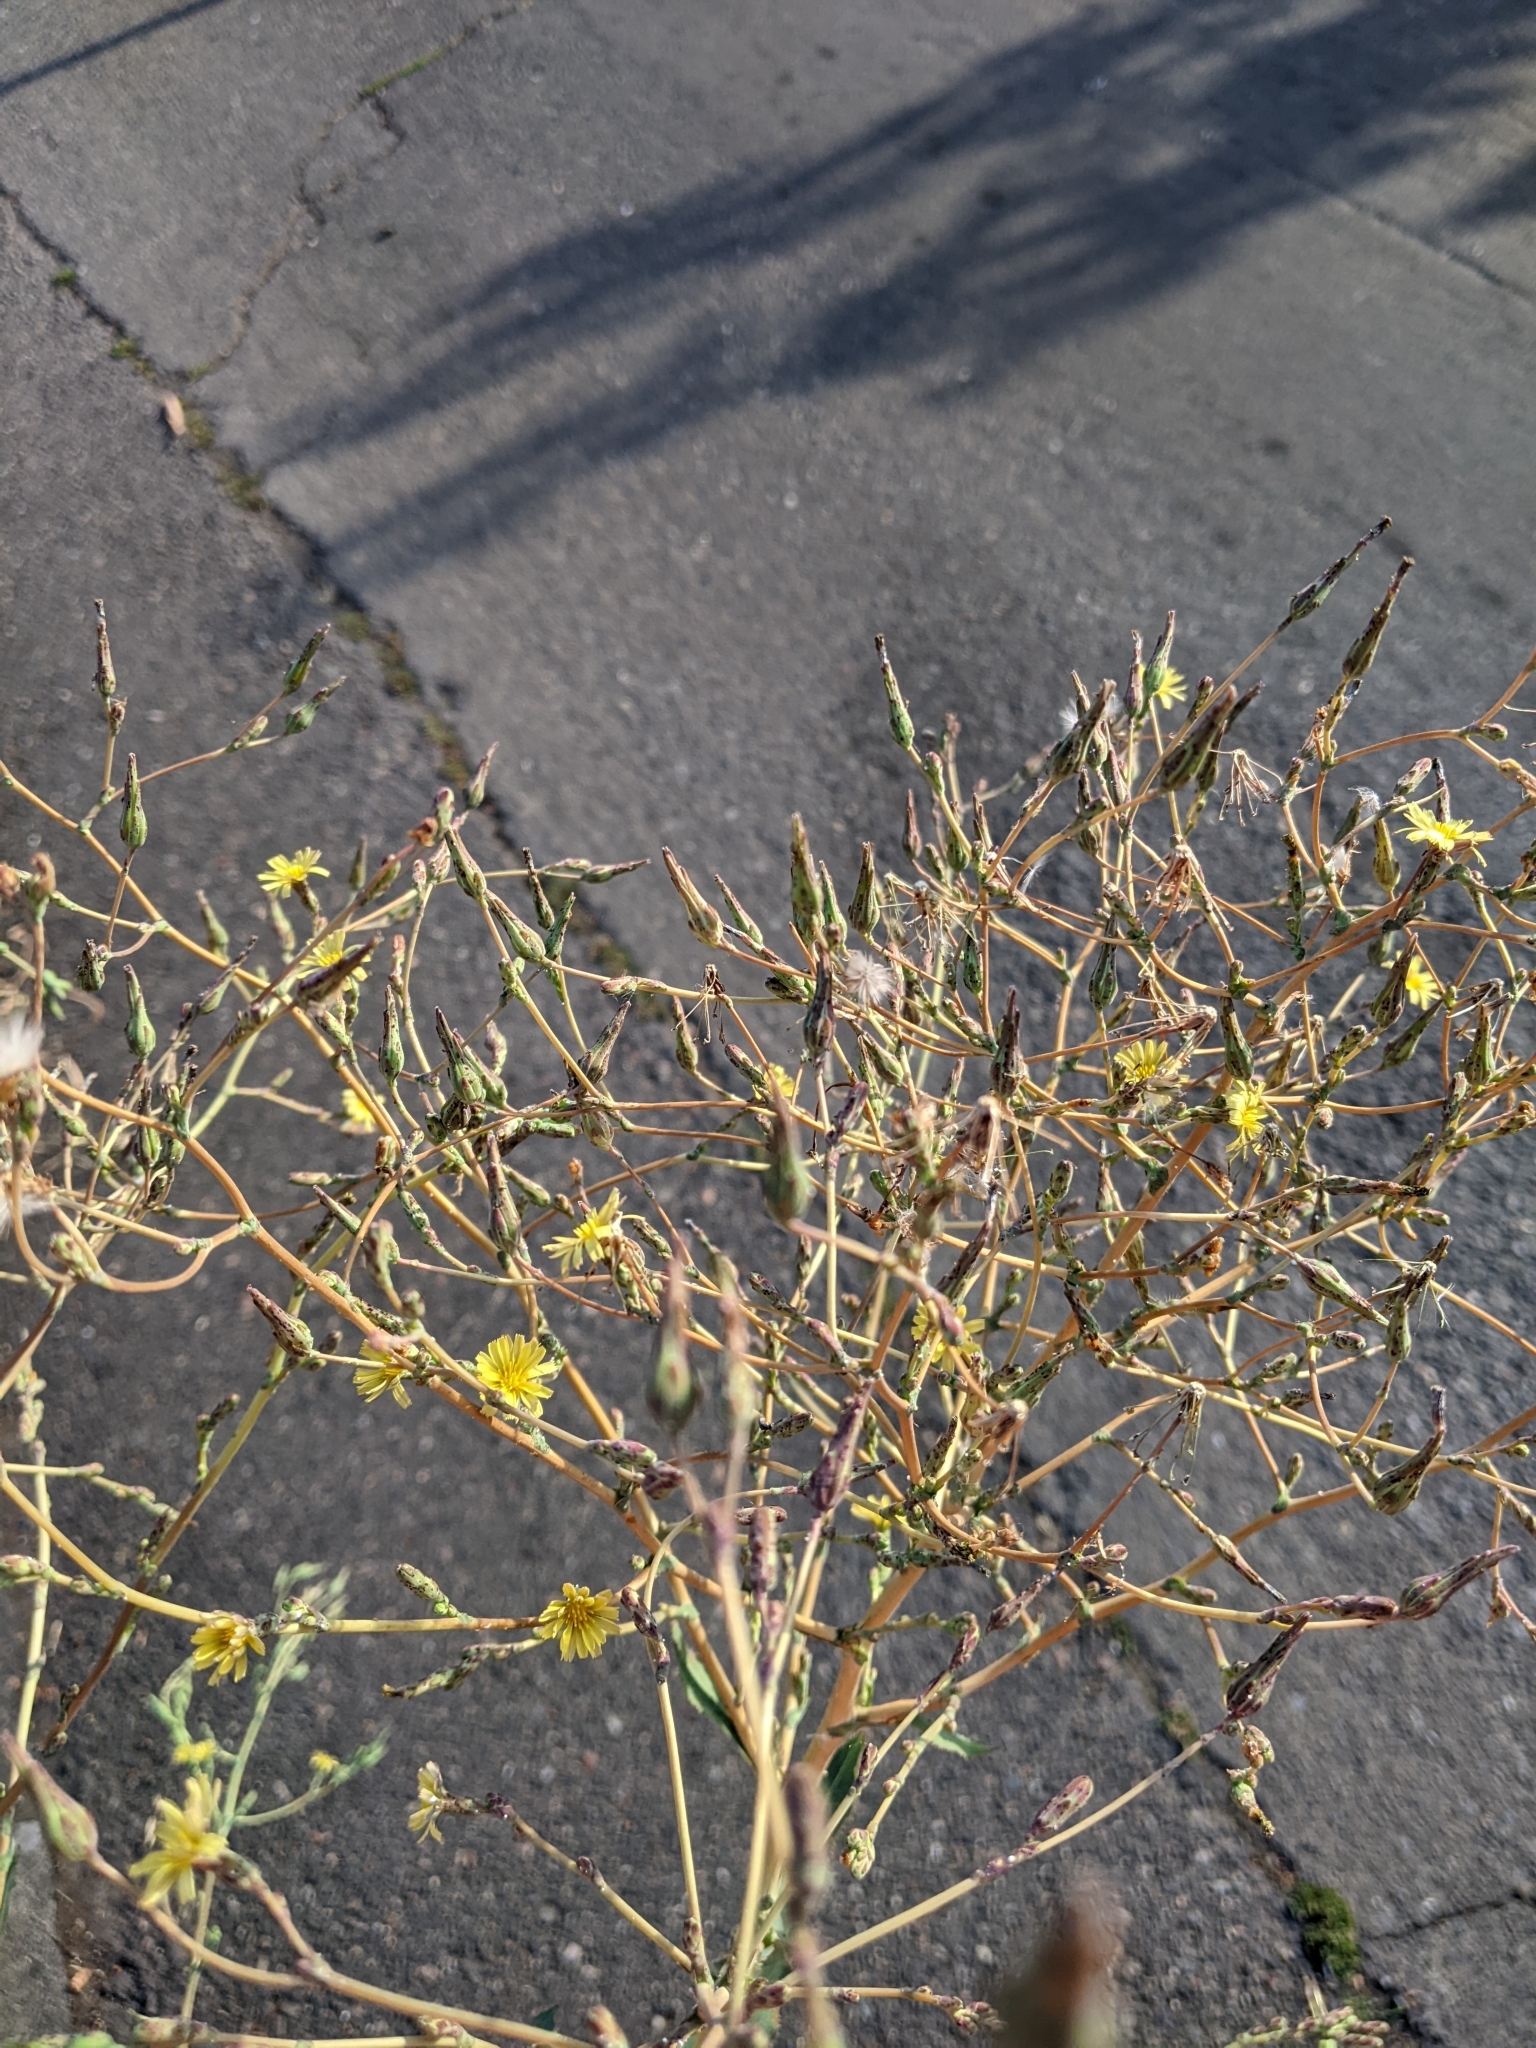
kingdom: Plantae
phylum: Tracheophyta
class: Magnoliopsida
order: Asterales
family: Asteraceae
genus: Lactuca
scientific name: Lactuca serriola
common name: Prickly lettuce
